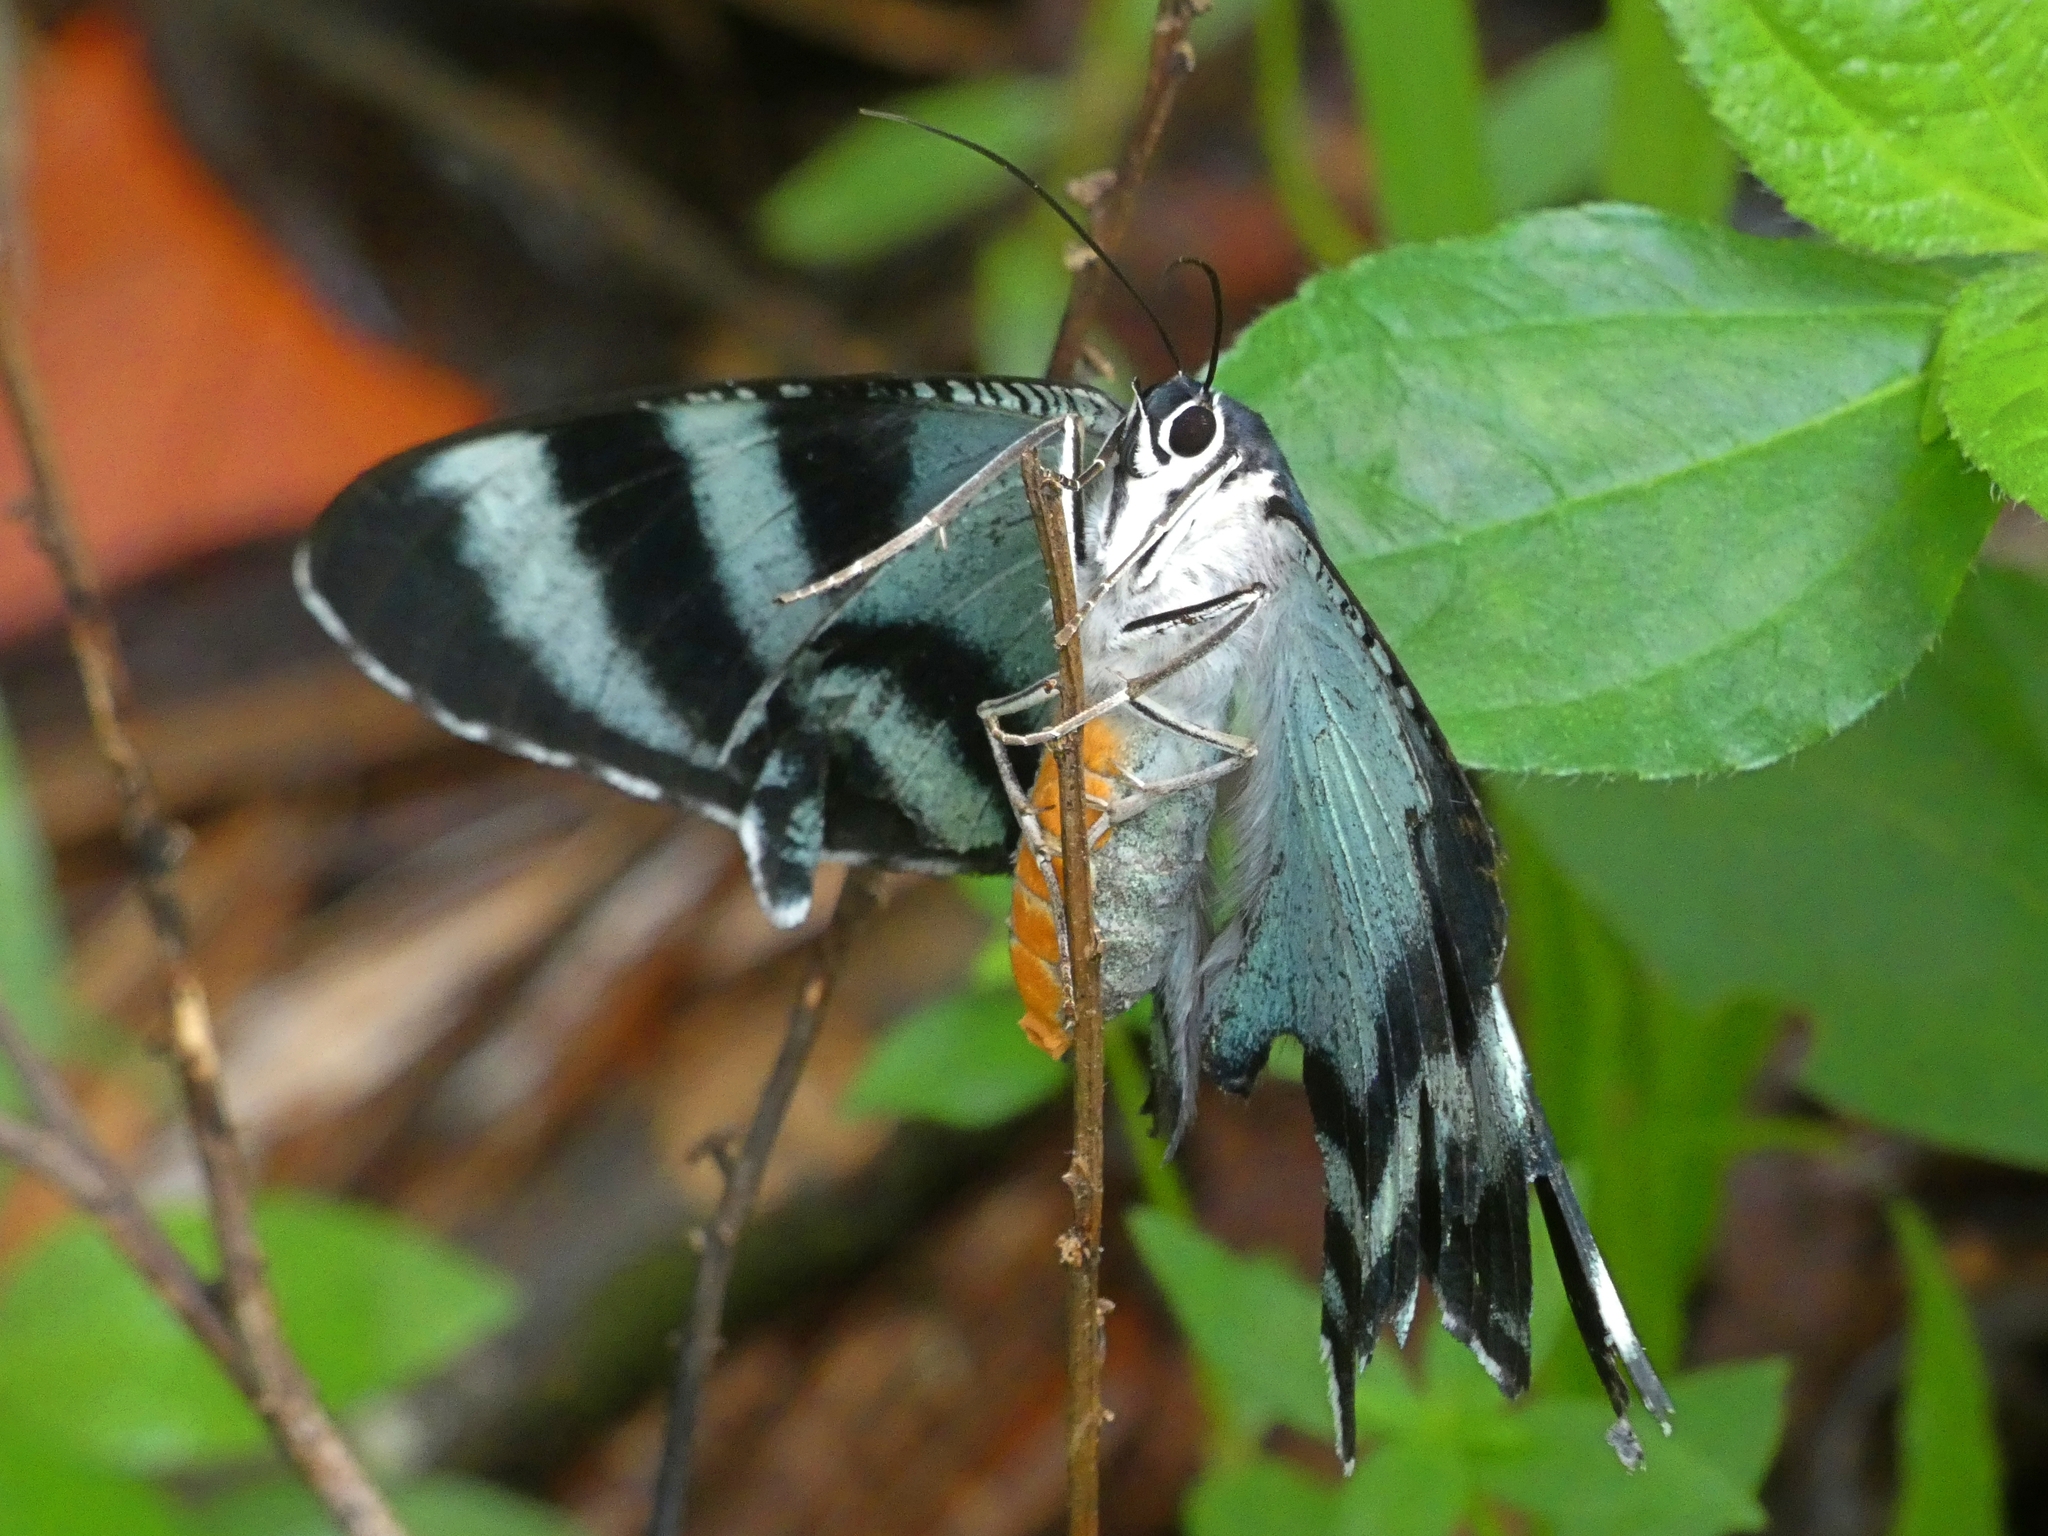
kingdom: Animalia
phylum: Arthropoda
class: Insecta
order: Lepidoptera
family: Uraniidae
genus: Alcides
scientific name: Alcides metaurus
